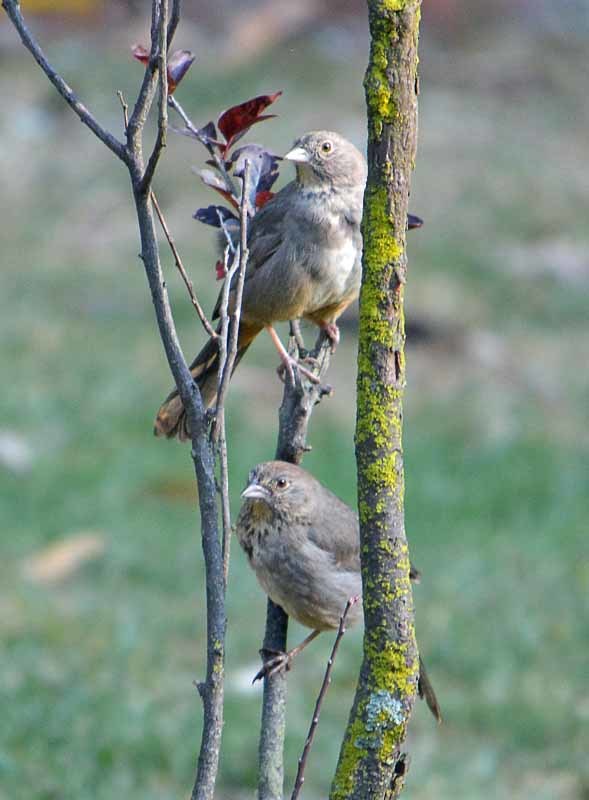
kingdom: Animalia
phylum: Chordata
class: Aves
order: Passeriformes
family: Passerellidae
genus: Melozone
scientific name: Melozone fusca
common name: Canyon towhee
